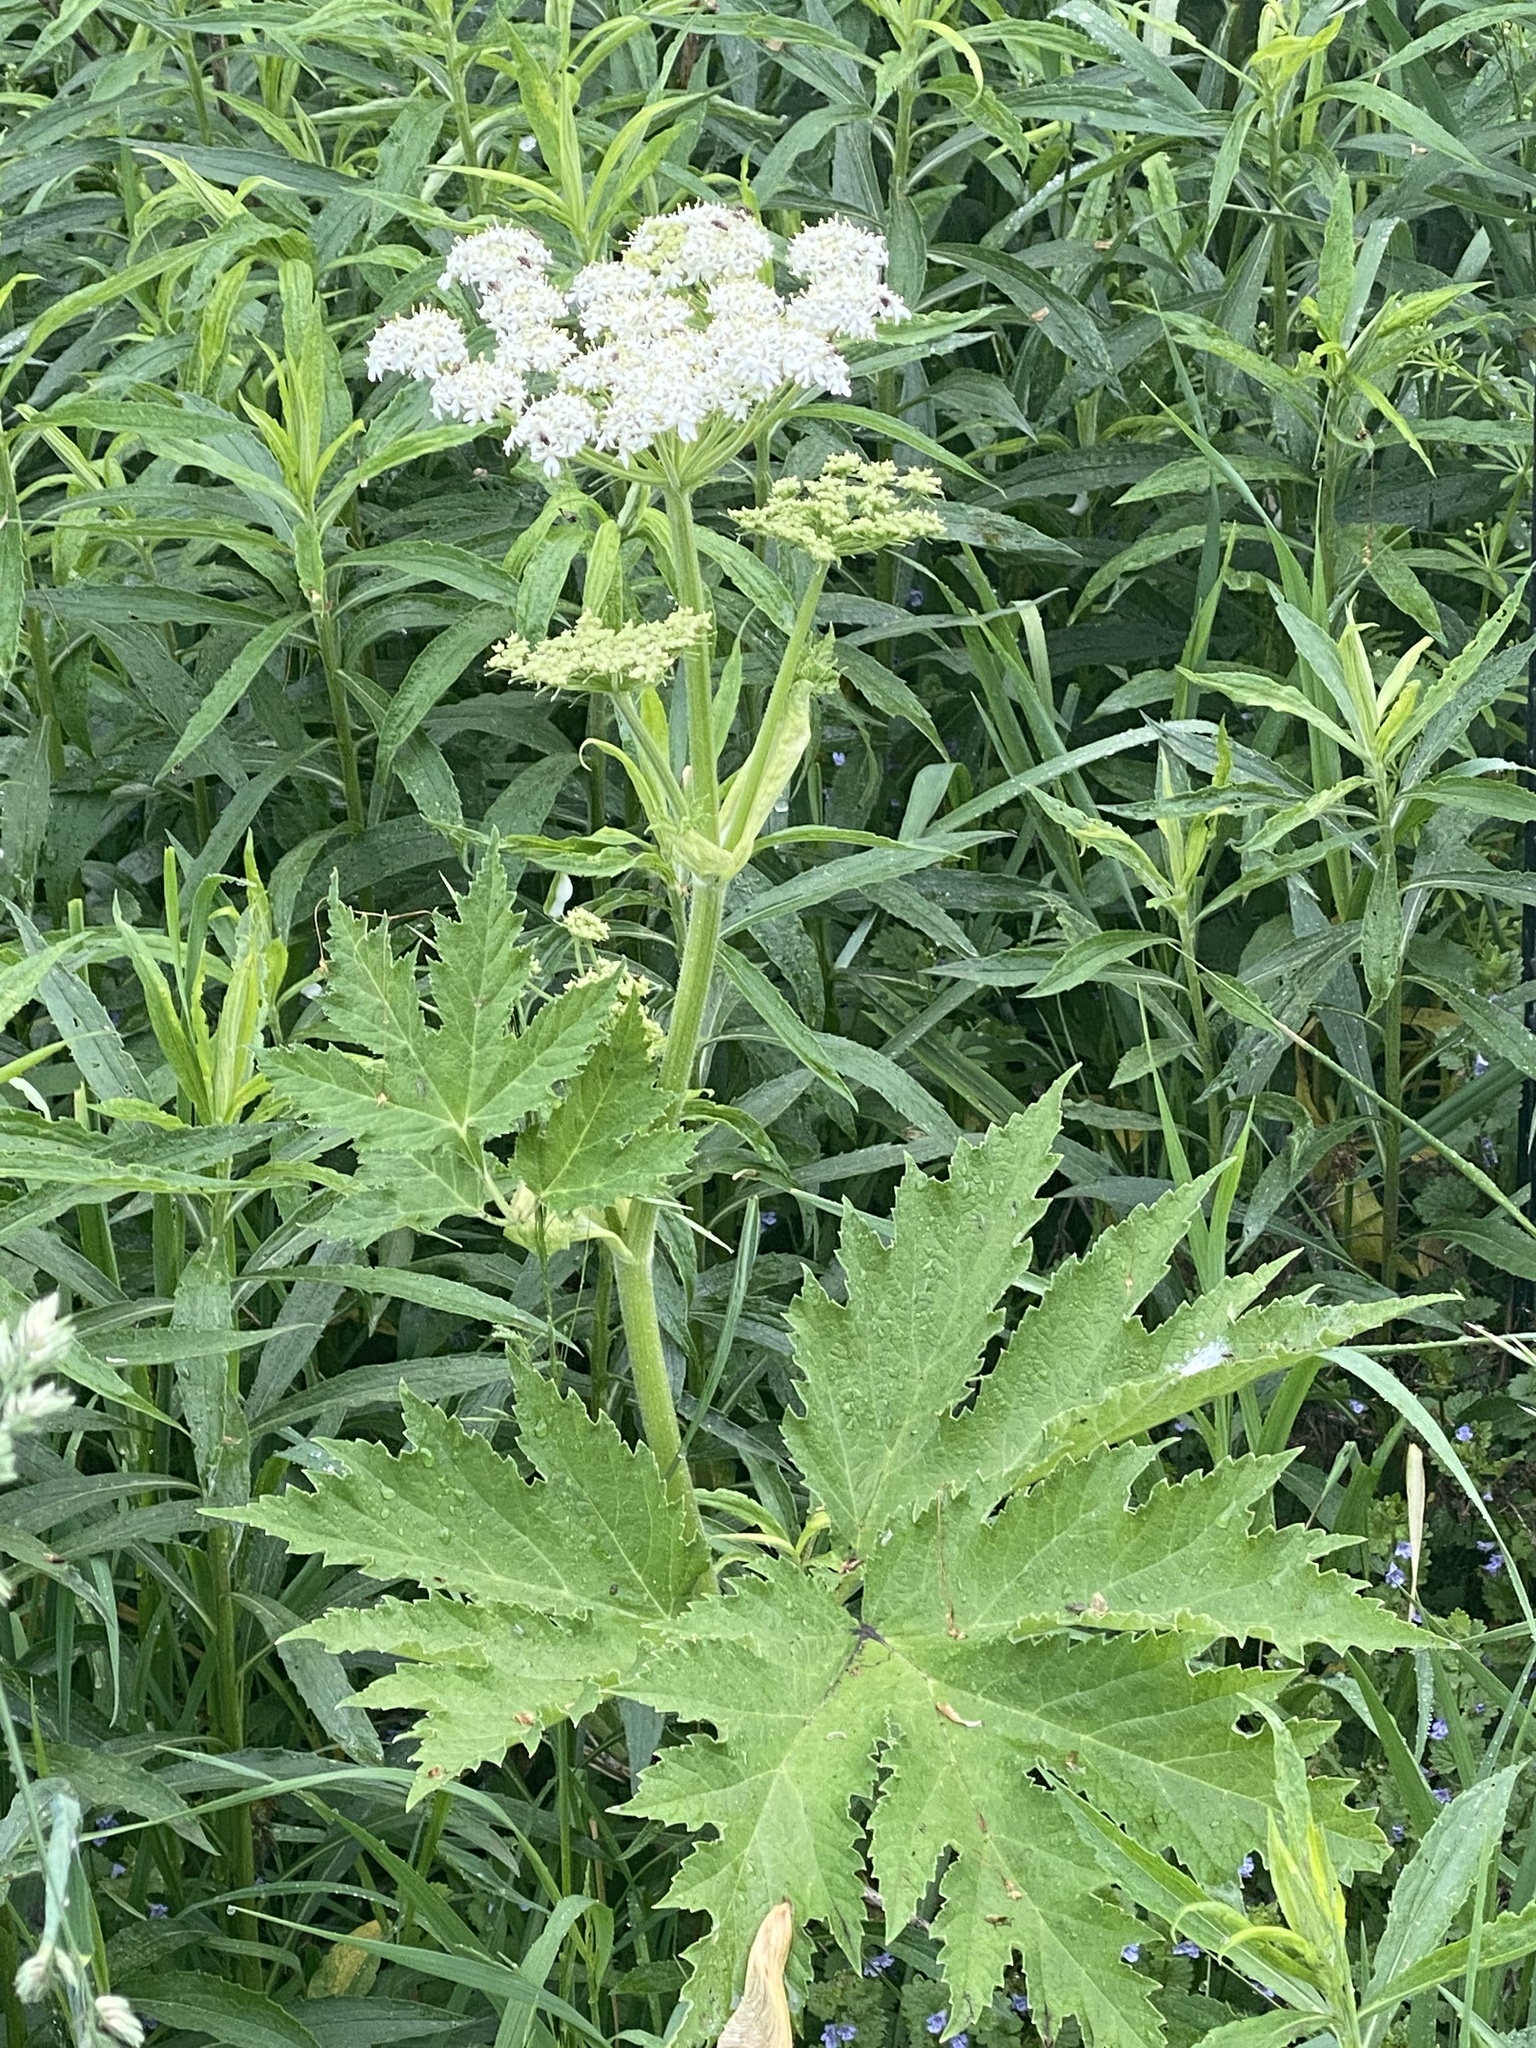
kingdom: Plantae
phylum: Tracheophyta
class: Magnoliopsida
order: Apiales
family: Apiaceae
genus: Heracleum
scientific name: Heracleum maximum
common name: American cow parsnip
